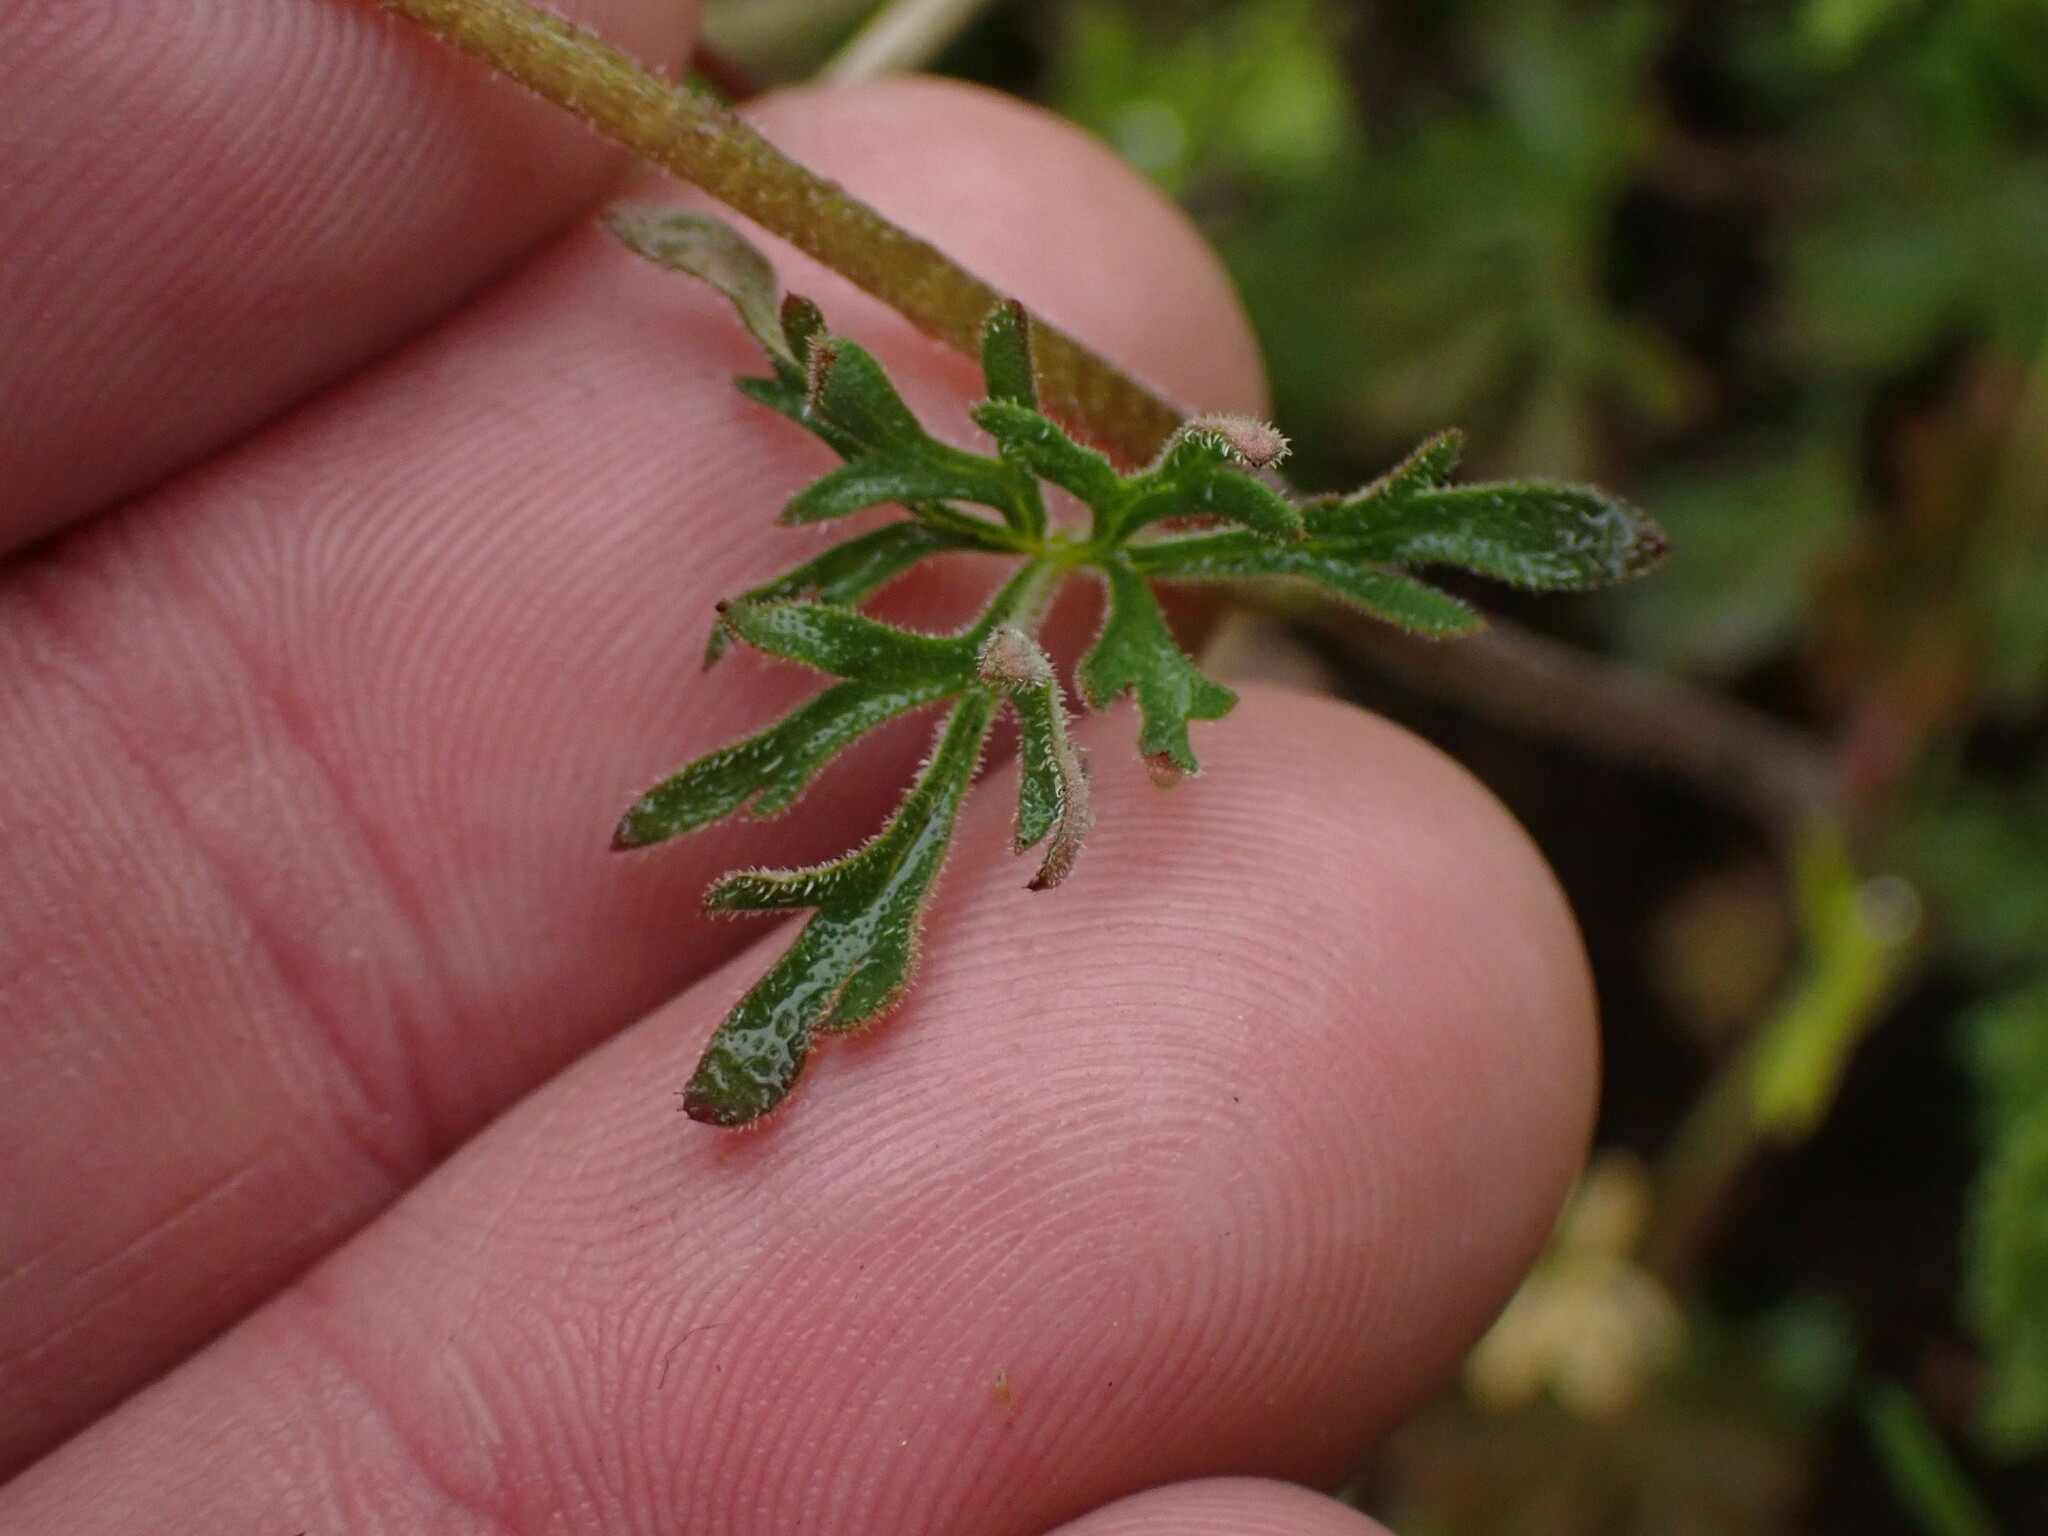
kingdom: Plantae
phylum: Tracheophyta
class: Magnoliopsida
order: Saxifragales
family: Saxifragaceae
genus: Lithophragma
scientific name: Lithophragma parviflorum
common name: Small-flowered fringe-cup
